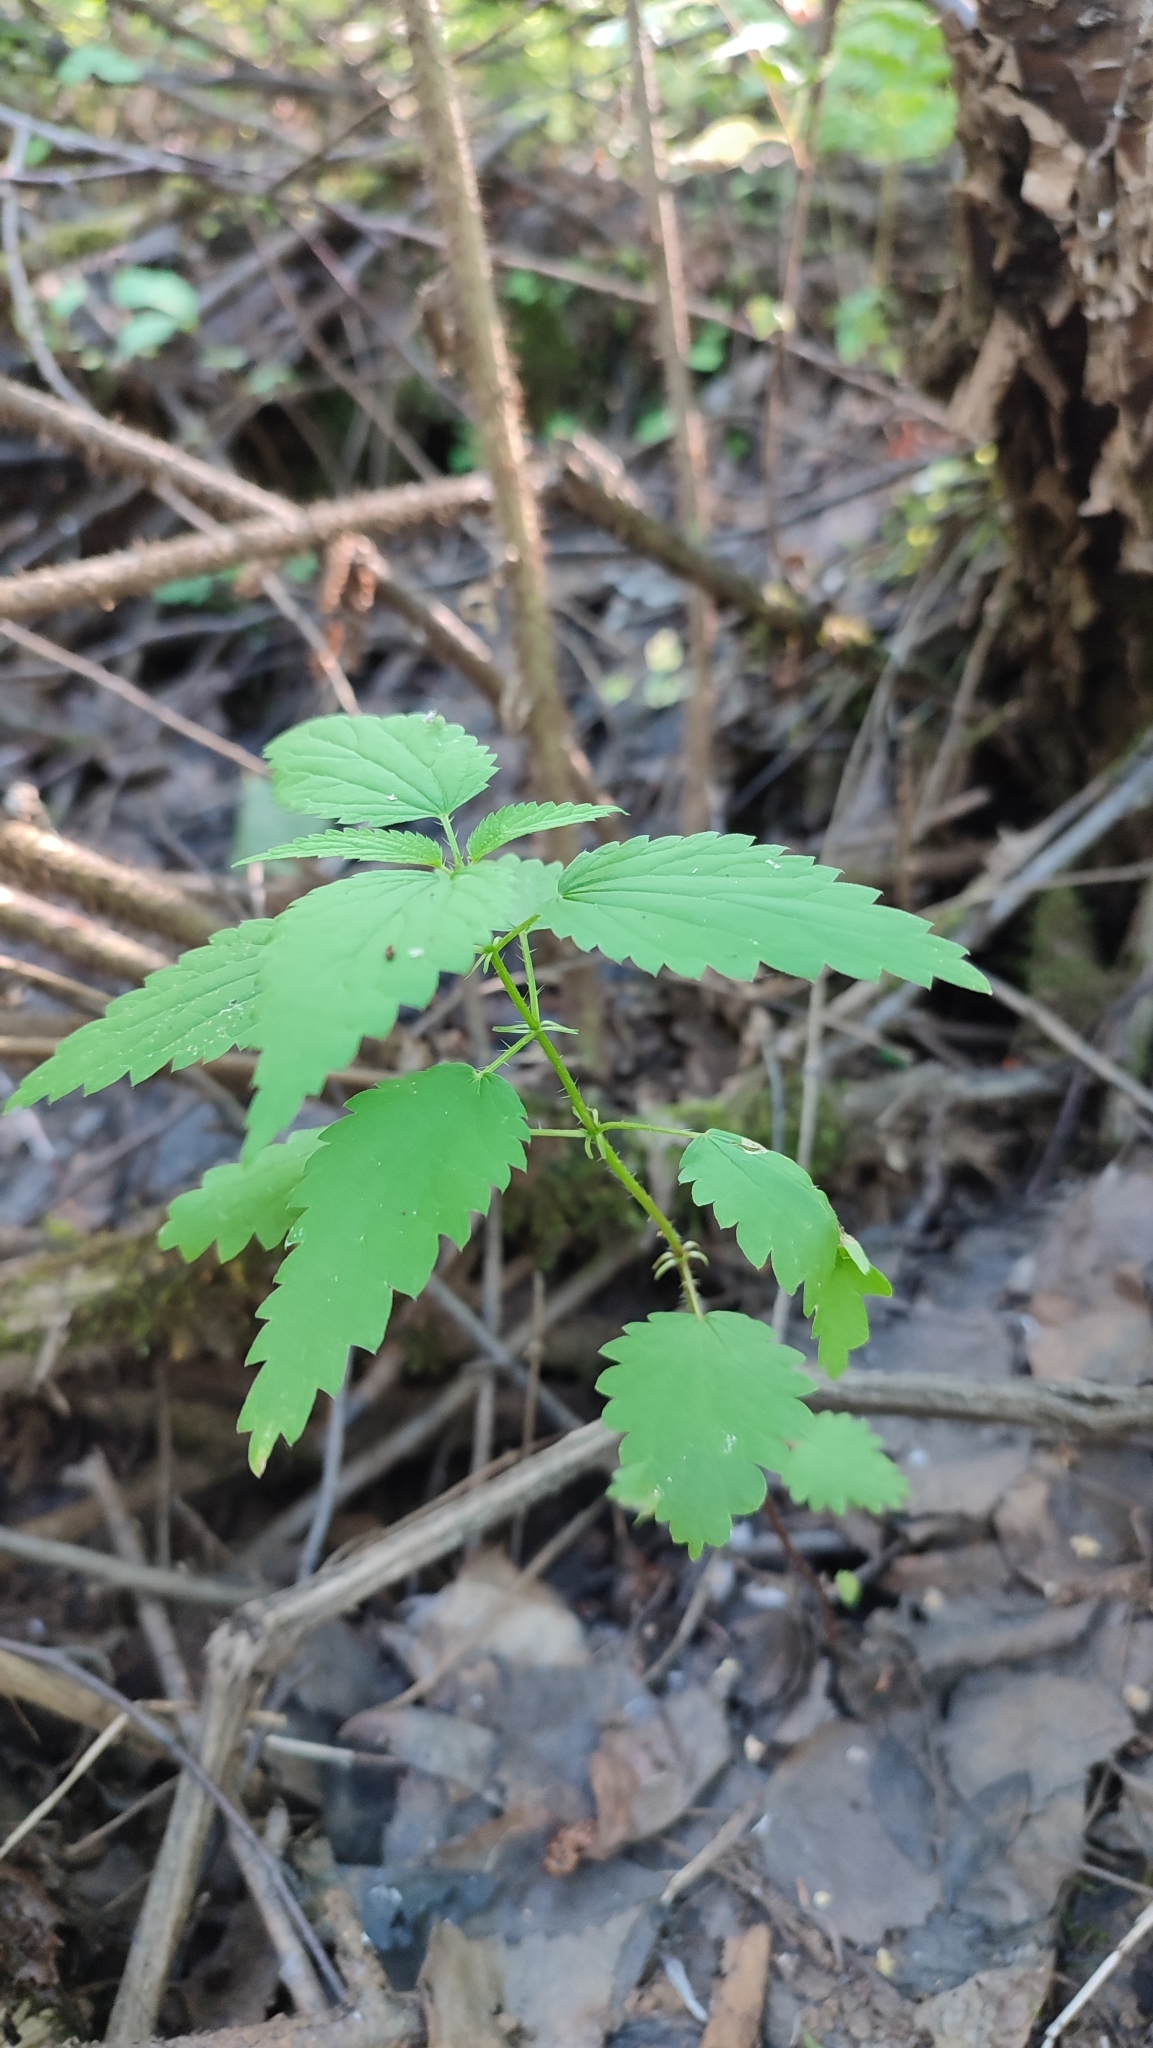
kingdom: Plantae
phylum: Tracheophyta
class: Magnoliopsida
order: Rosales
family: Urticaceae
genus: Urtica
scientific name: Urtica dioica
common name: Common nettle
